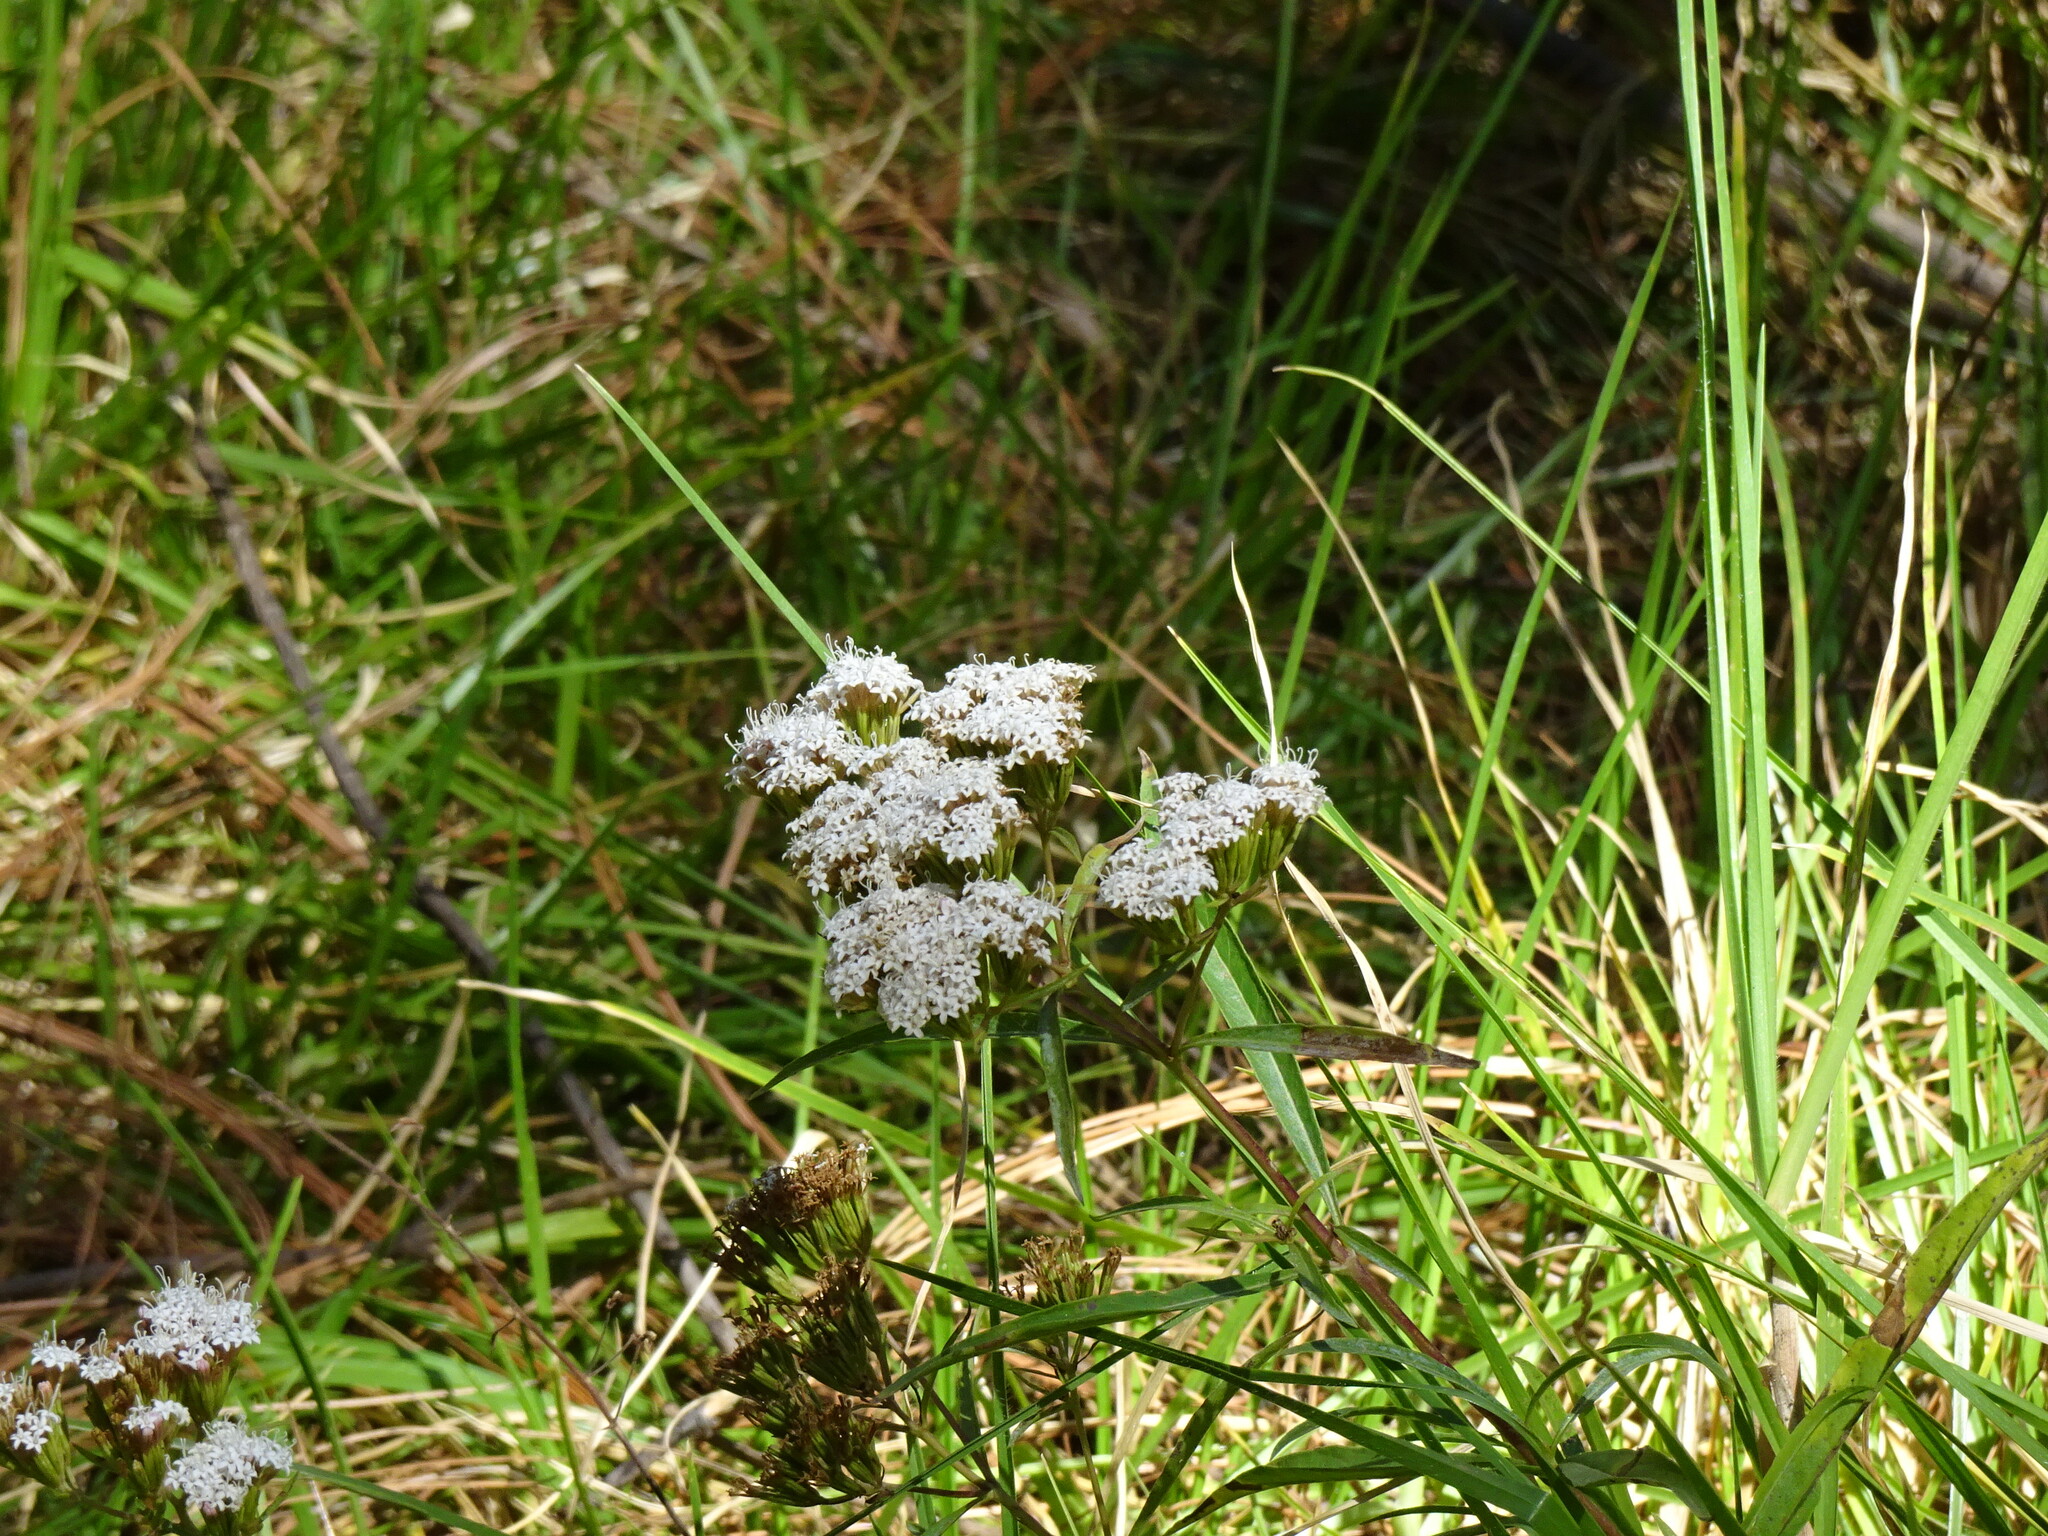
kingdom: Plantae
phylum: Tracheophyta
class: Magnoliopsida
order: Asterales
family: Asteraceae
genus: Stevia
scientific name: Stevia serrata
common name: Sawtooth candyleaf
